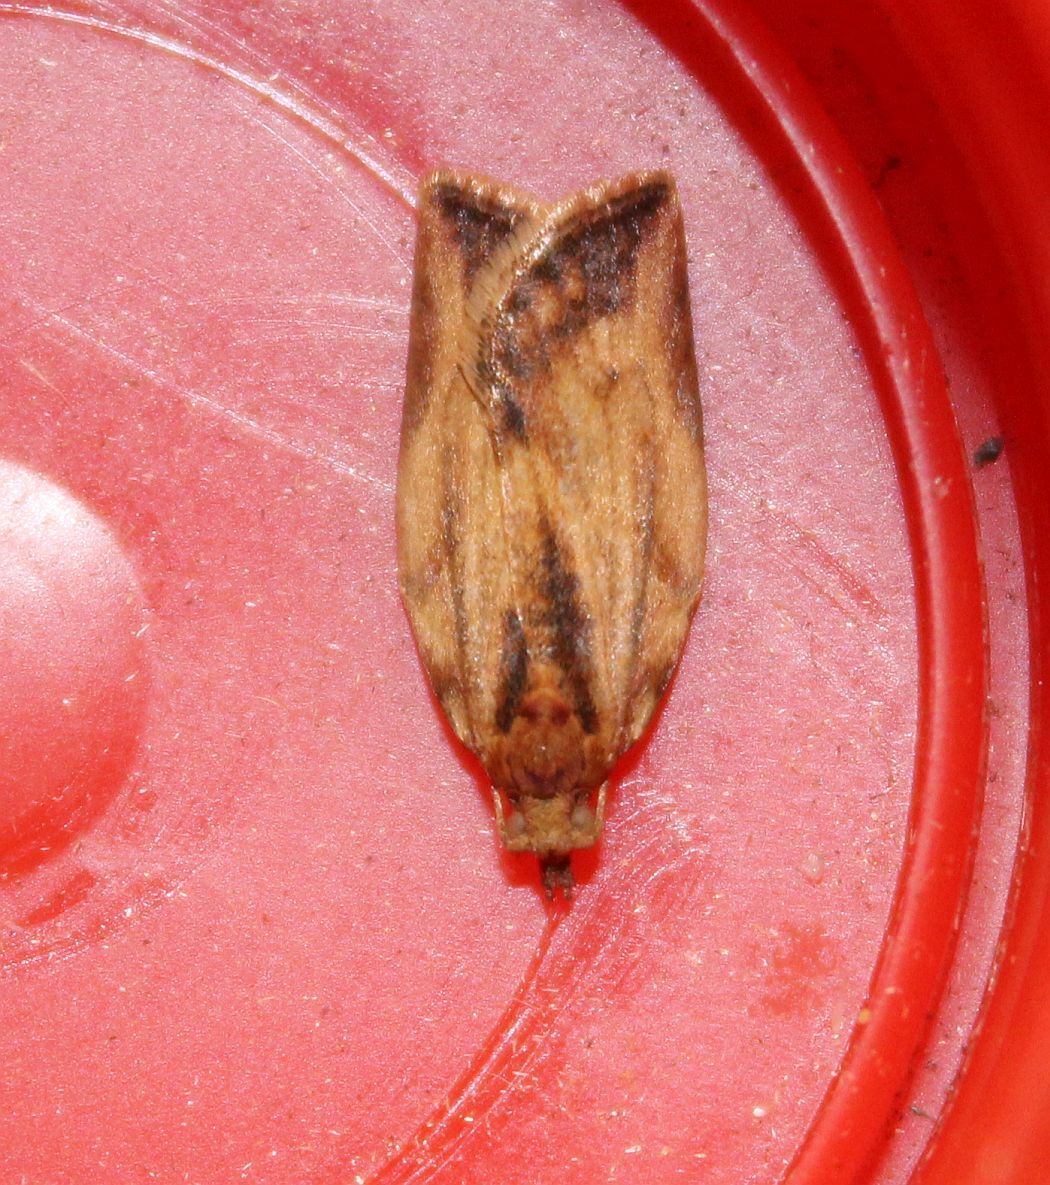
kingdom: Animalia
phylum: Arthropoda
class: Insecta
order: Lepidoptera
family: Tortricidae
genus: Epiphyas
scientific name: Epiphyas postvittana
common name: Light brown apple moth
